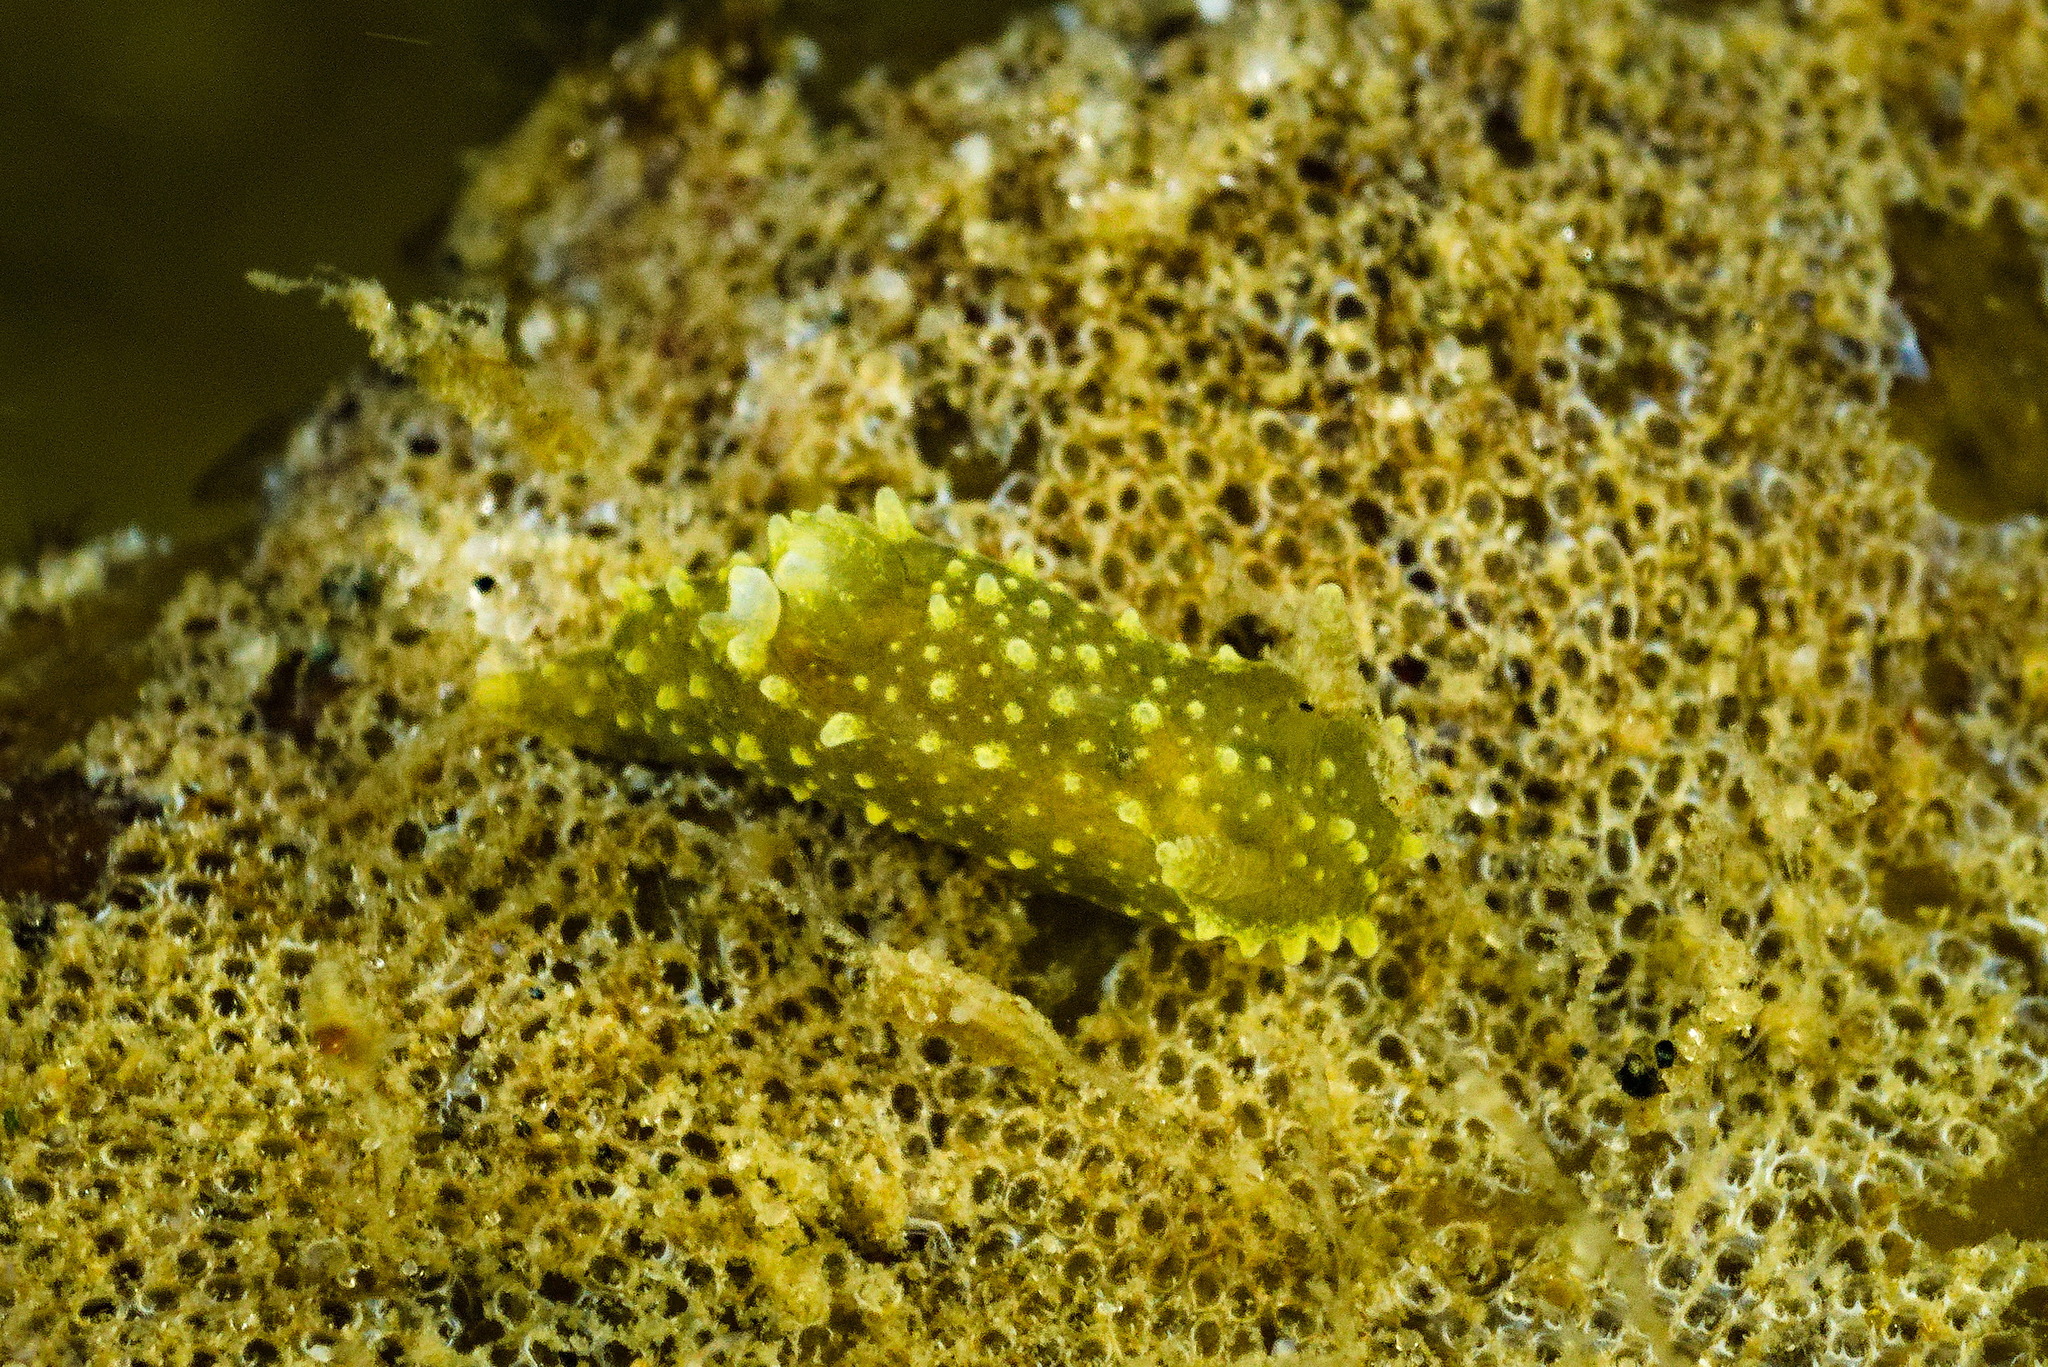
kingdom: Animalia
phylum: Mollusca
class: Gastropoda
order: Nudibranchia
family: Polyceridae
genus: Palio
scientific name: Palio dubia
